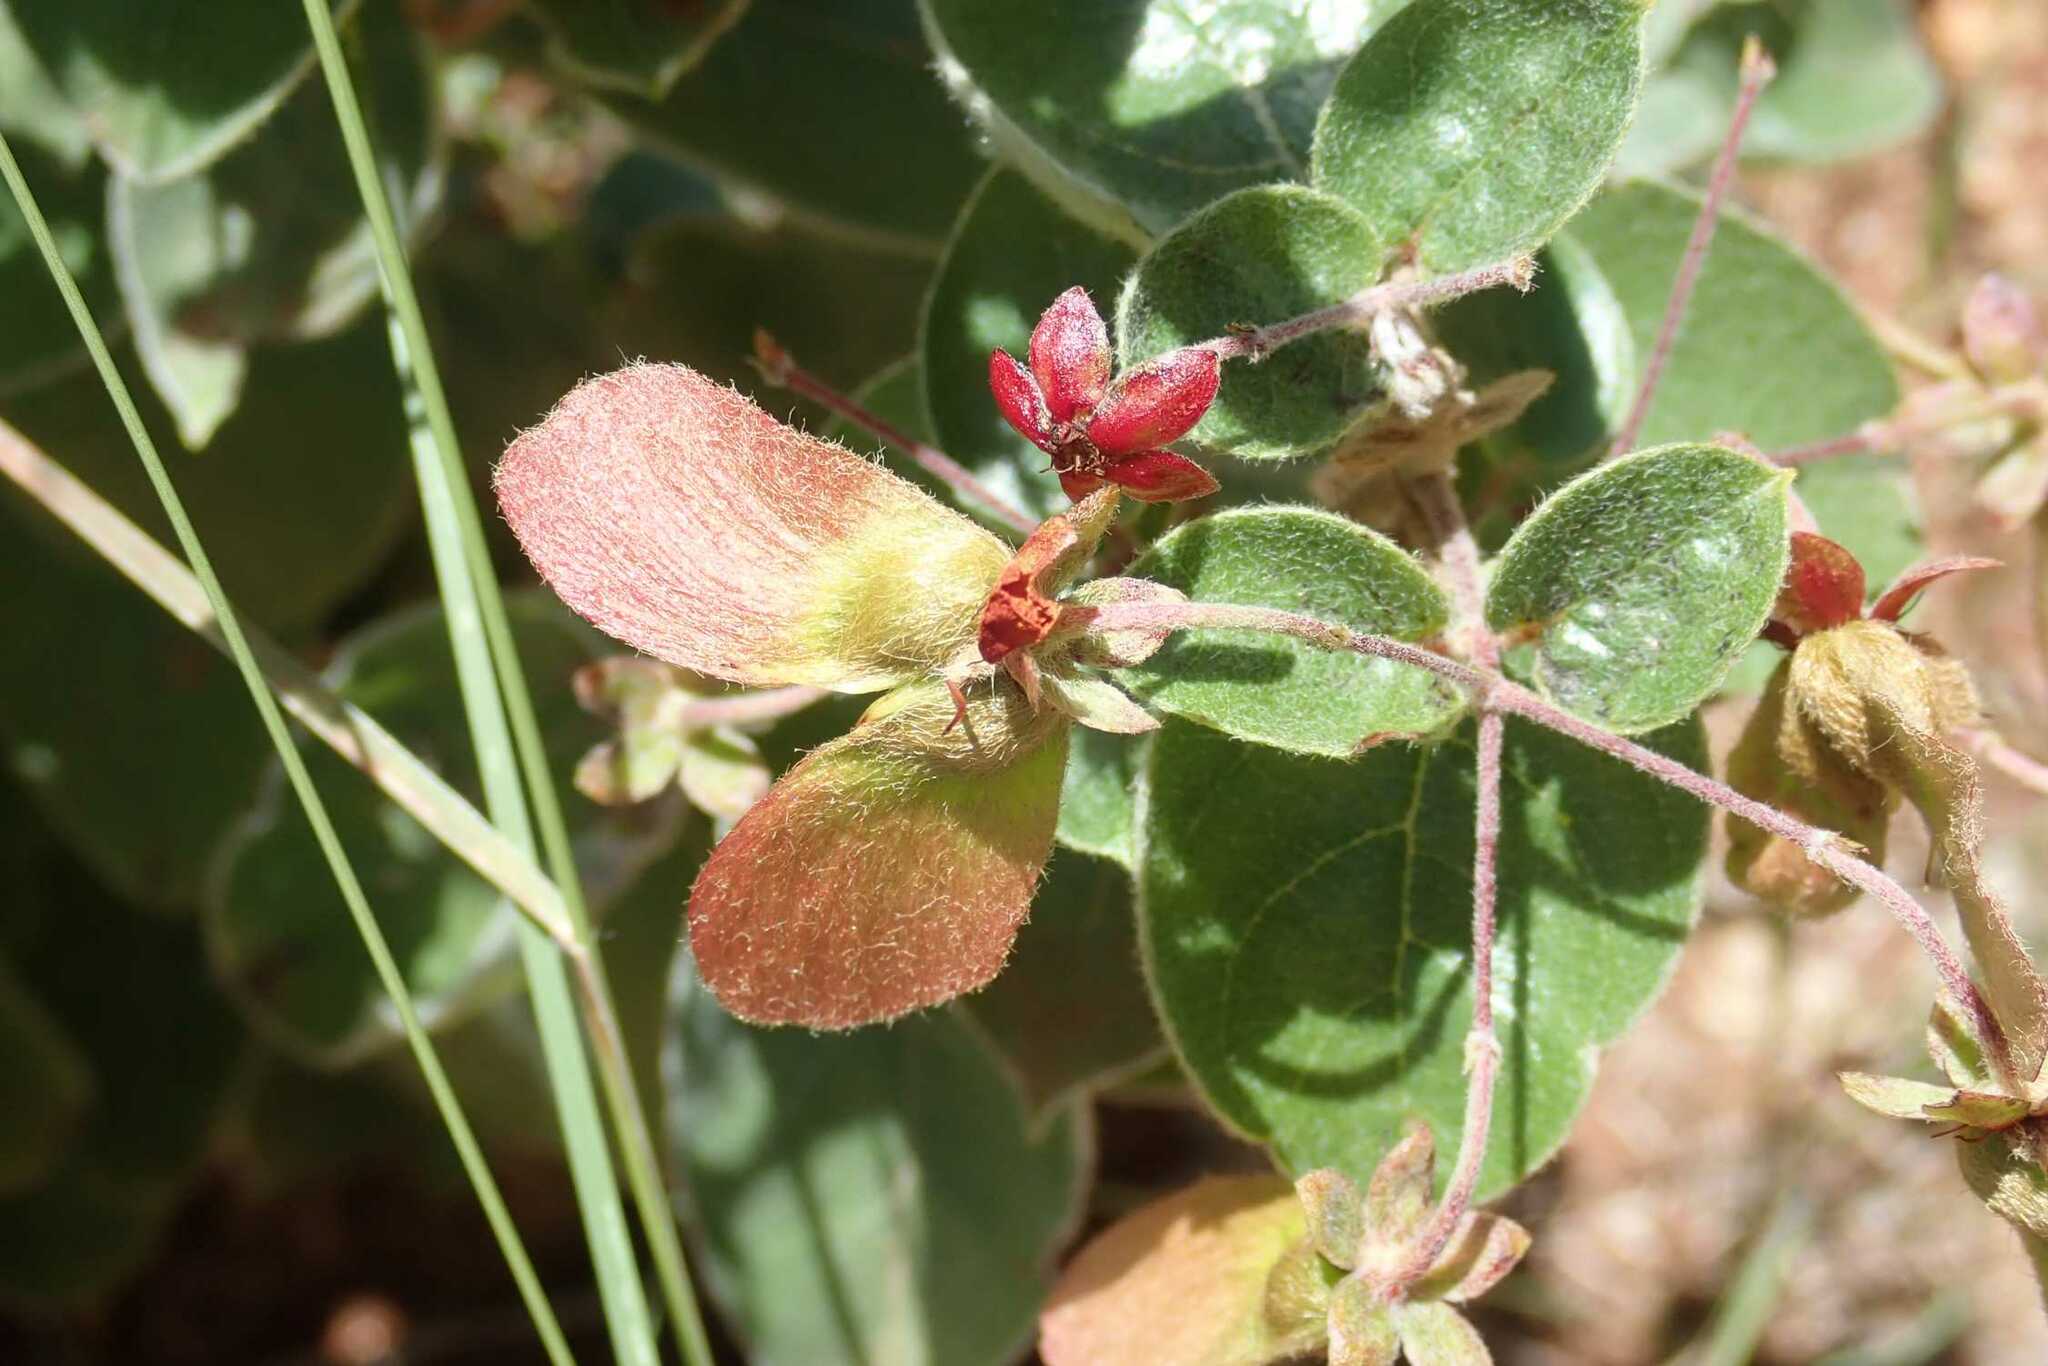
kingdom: Plantae
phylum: Tracheophyta
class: Magnoliopsida
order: Malpighiales
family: Malpighiaceae
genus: Sphedamnocarpus
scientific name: Sphedamnocarpus pruriens
